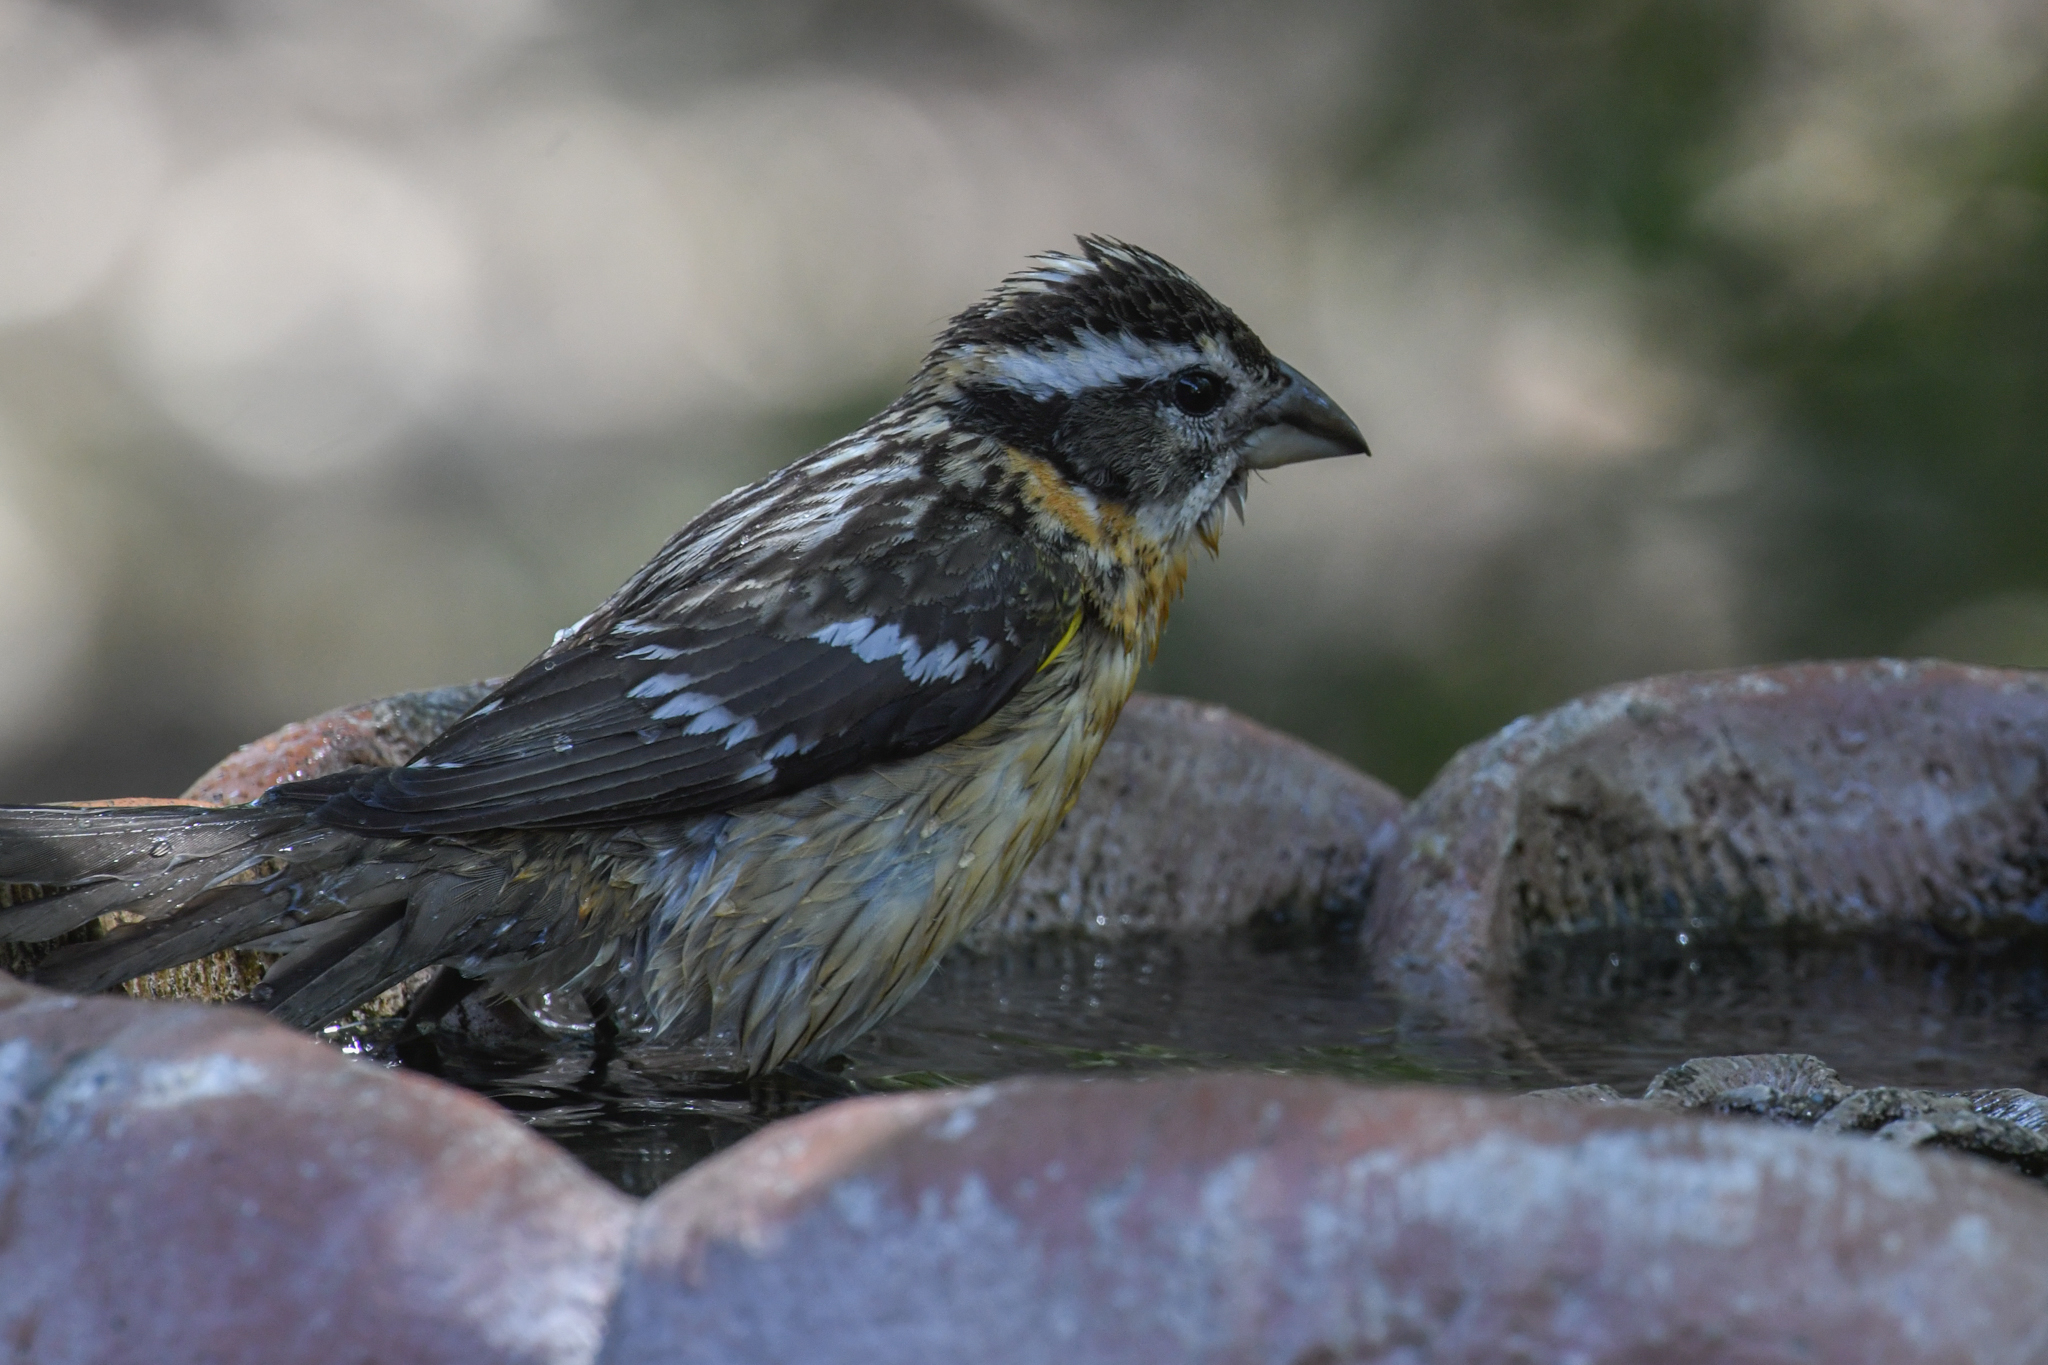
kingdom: Animalia
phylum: Chordata
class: Aves
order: Passeriformes
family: Cardinalidae
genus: Pheucticus
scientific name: Pheucticus melanocephalus
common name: Black-headed grosbeak
